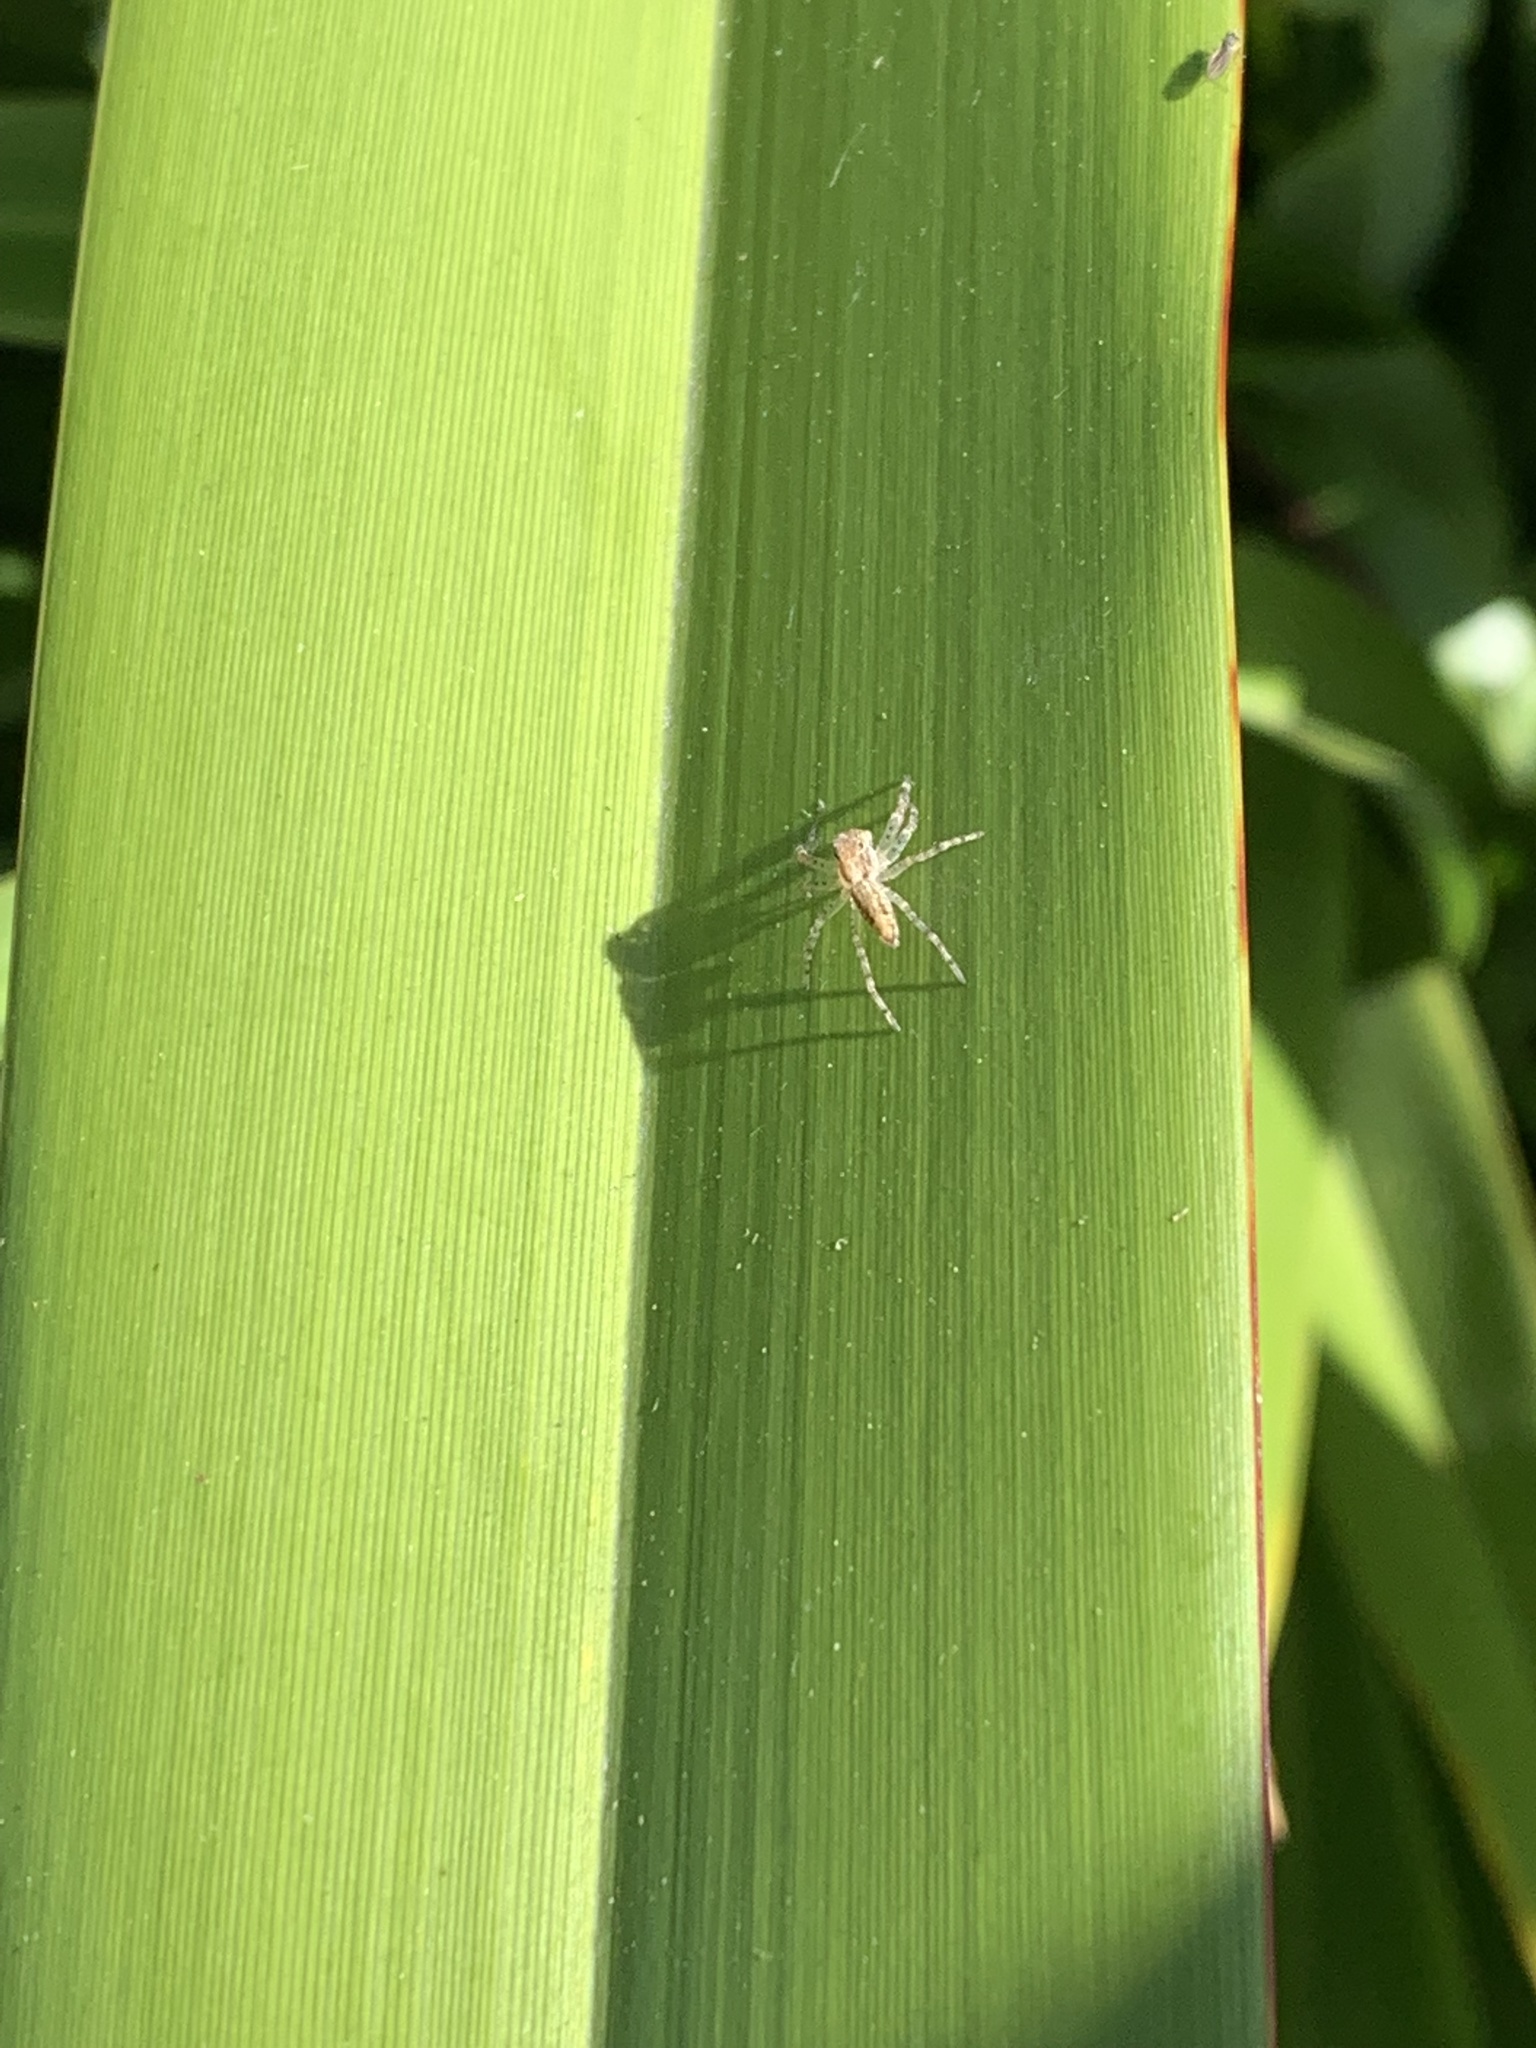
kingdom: Animalia
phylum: Arthropoda
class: Arachnida
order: Araneae
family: Salticidae
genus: Helpis
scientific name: Helpis minitabunda
